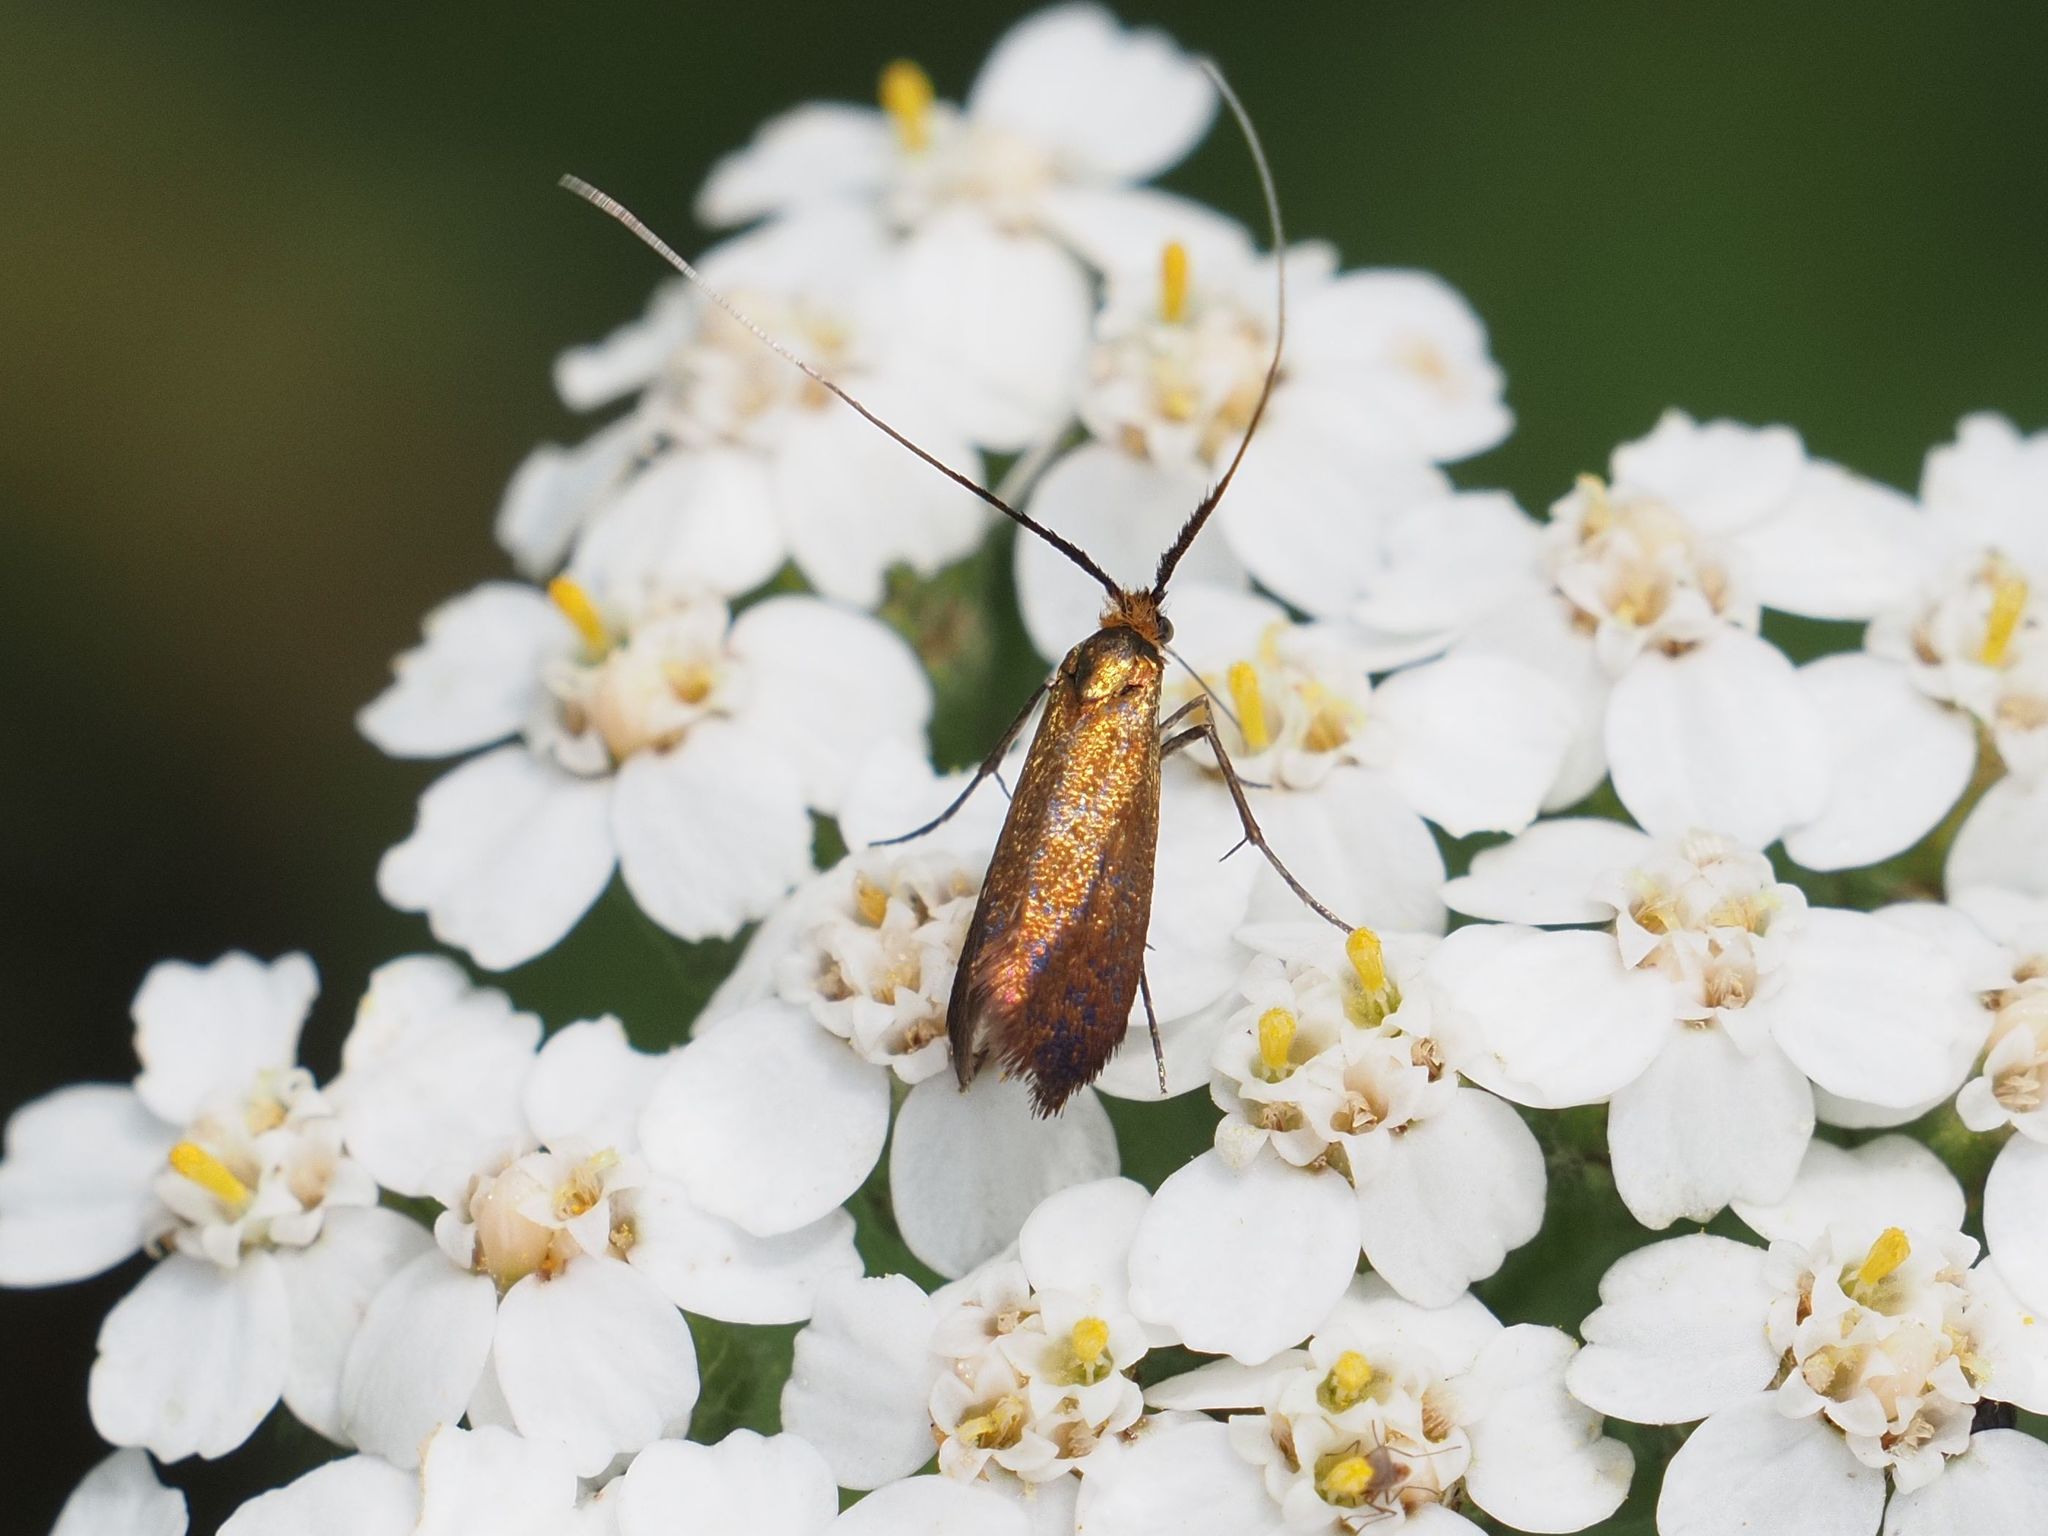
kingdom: Animalia
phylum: Arthropoda
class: Insecta
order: Lepidoptera
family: Adelidae
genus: Adela
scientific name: Adela violella
